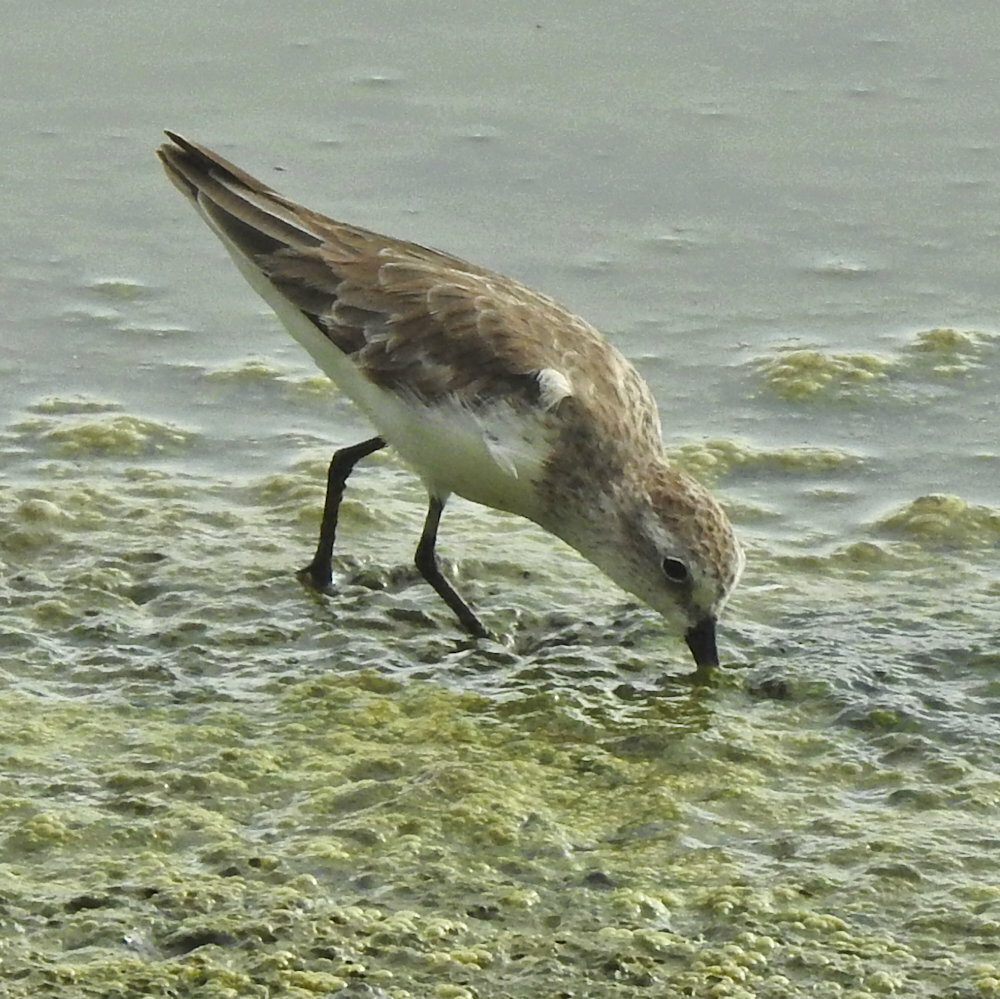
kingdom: Animalia
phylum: Chordata
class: Aves
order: Charadriiformes
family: Scolopacidae
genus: Calidris
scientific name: Calidris minutilla
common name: Least sandpiper
